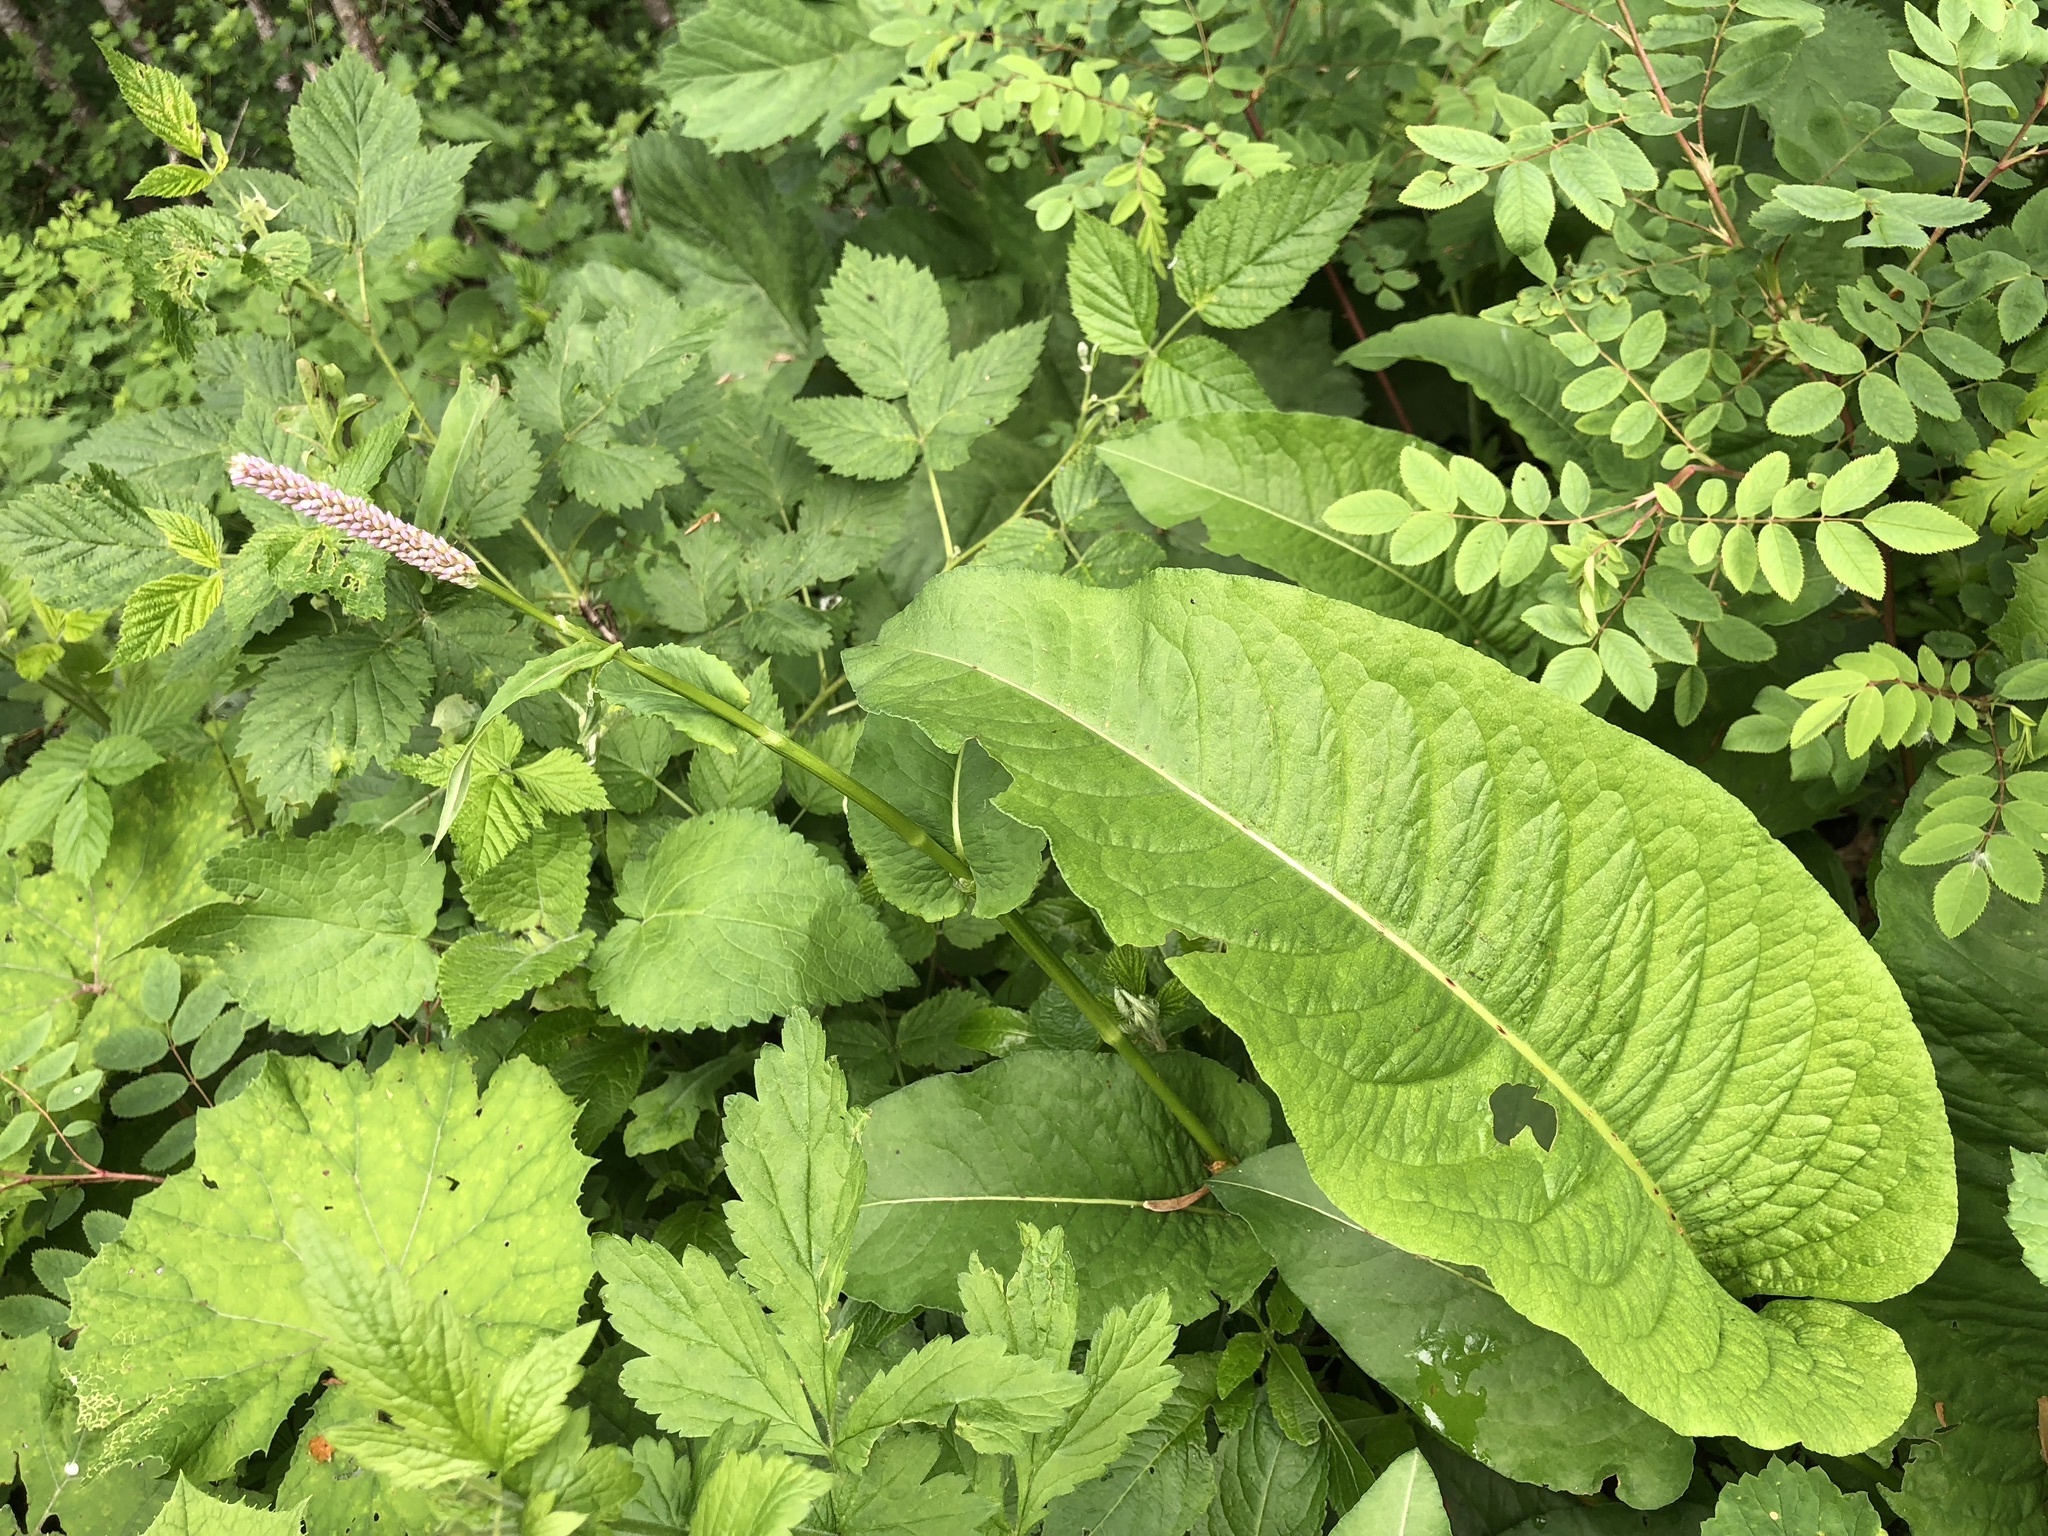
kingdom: Plantae
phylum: Tracheophyta
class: Magnoliopsida
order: Caryophyllales
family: Polygonaceae
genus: Bistorta
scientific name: Bistorta officinalis
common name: Common bistort
